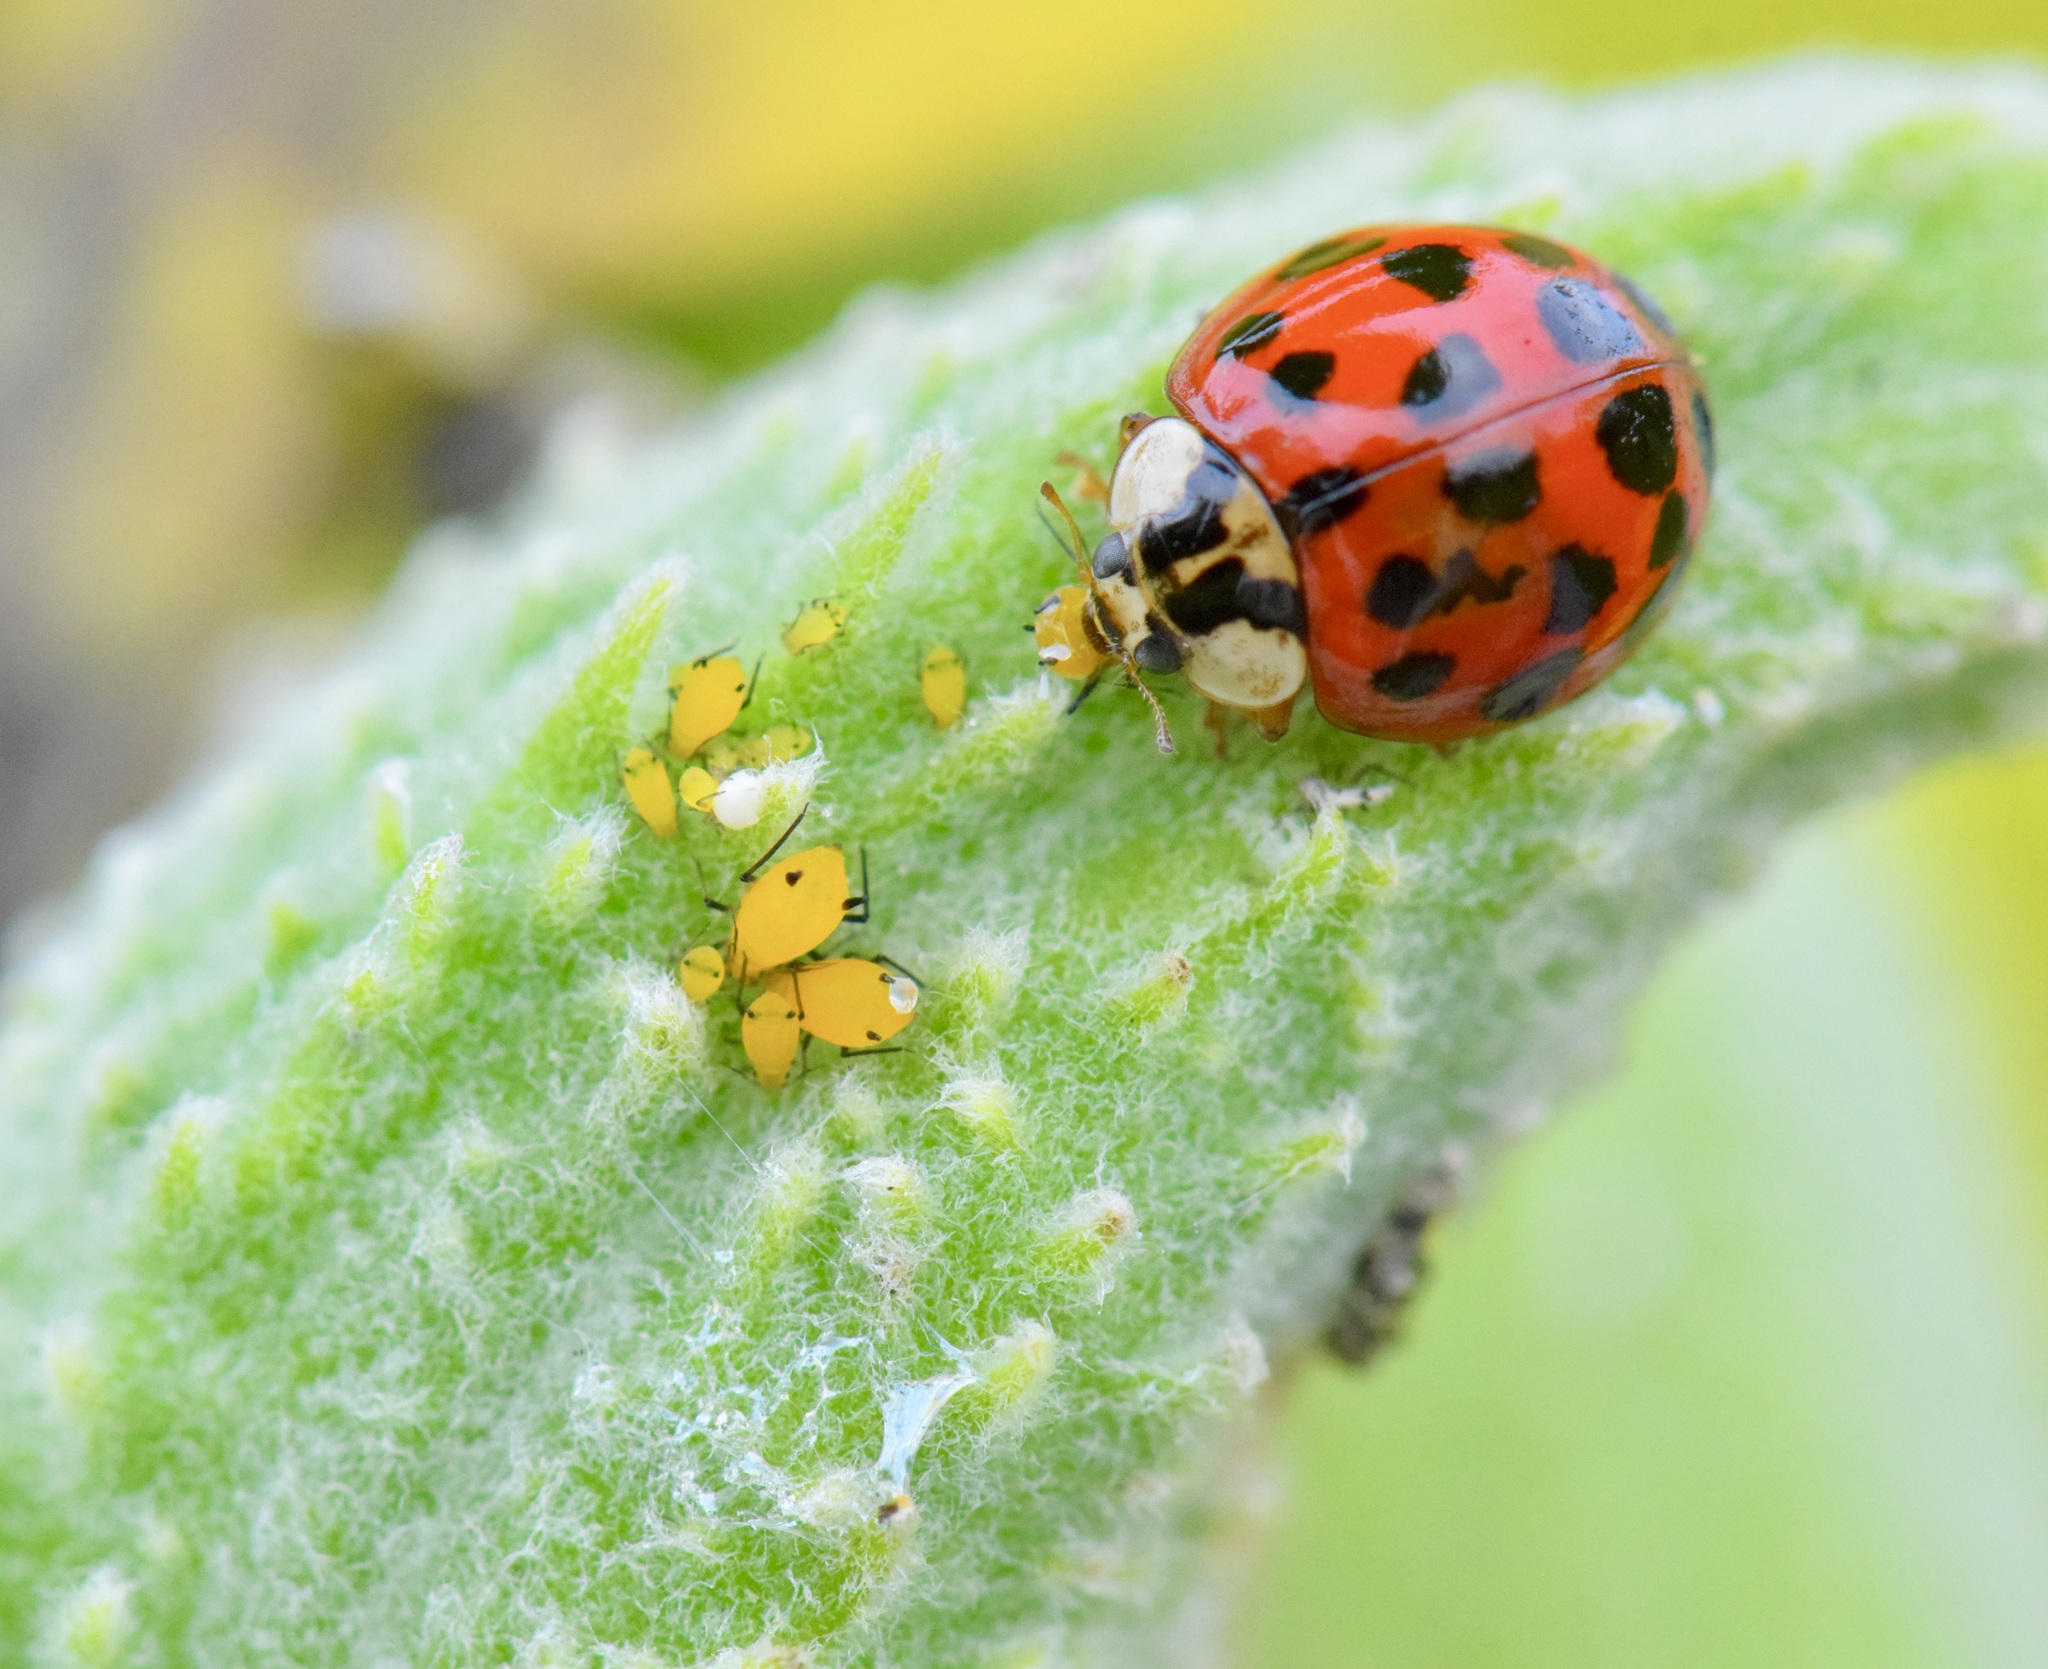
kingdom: Animalia
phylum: Arthropoda
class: Insecta
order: Coleoptera
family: Coccinellidae
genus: Harmonia
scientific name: Harmonia axyridis
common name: Harlequin ladybird
